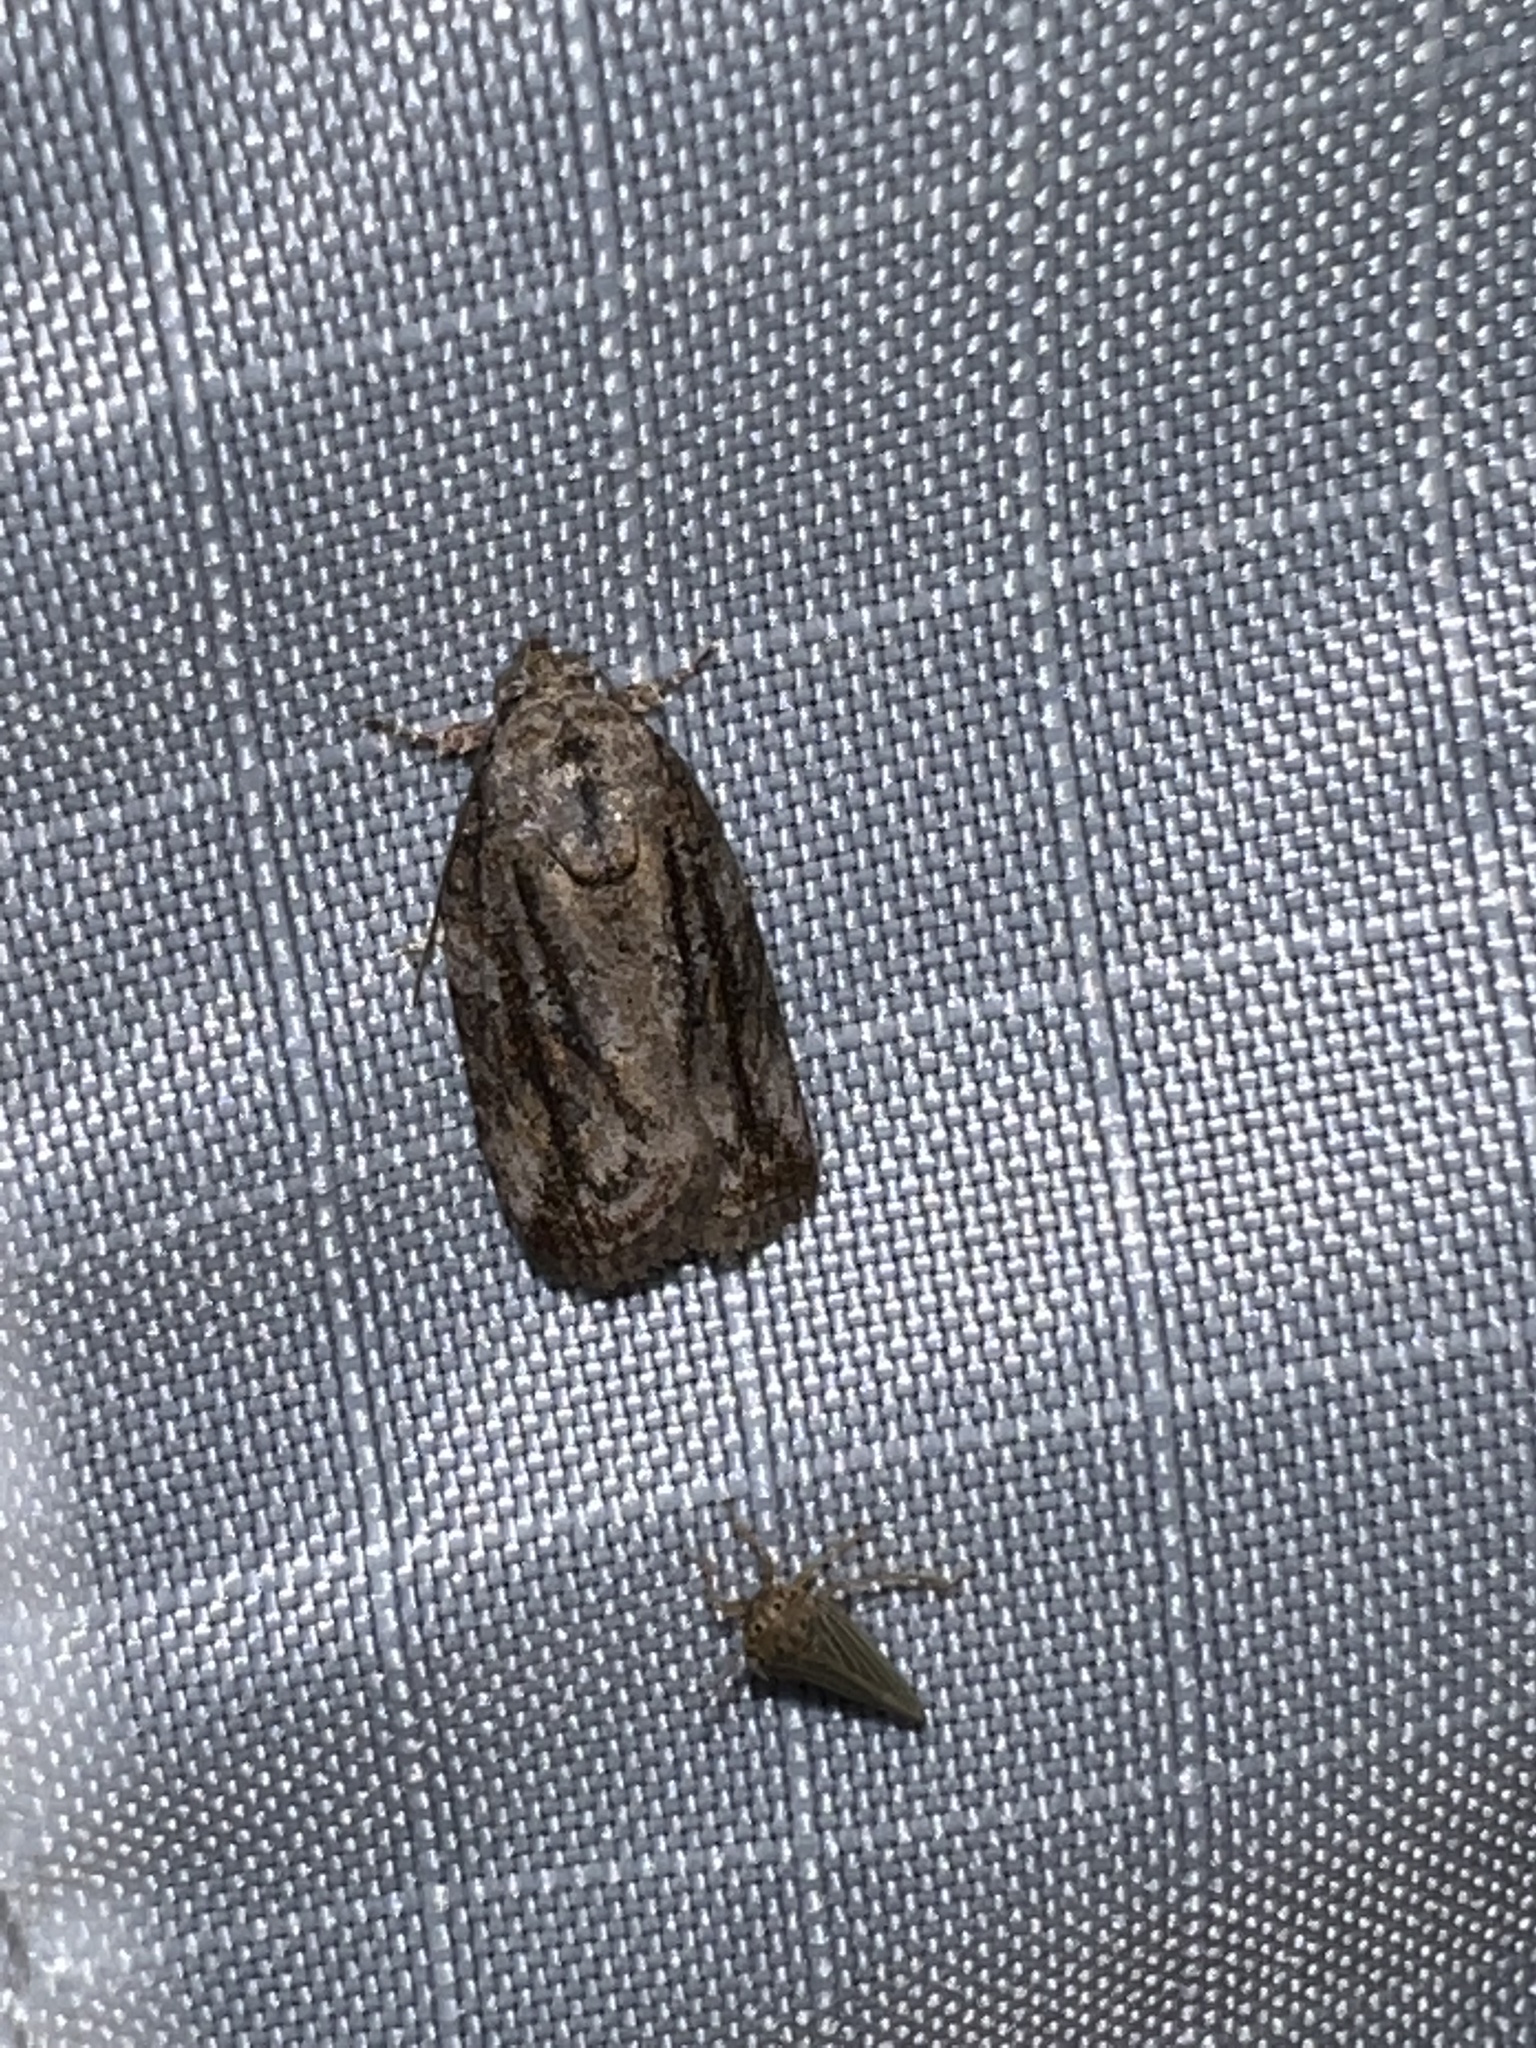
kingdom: Animalia
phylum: Arthropoda
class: Insecta
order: Lepidoptera
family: Nolidae
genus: Garella
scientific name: Garella nilotica
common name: Black-olive caterpillar moth
